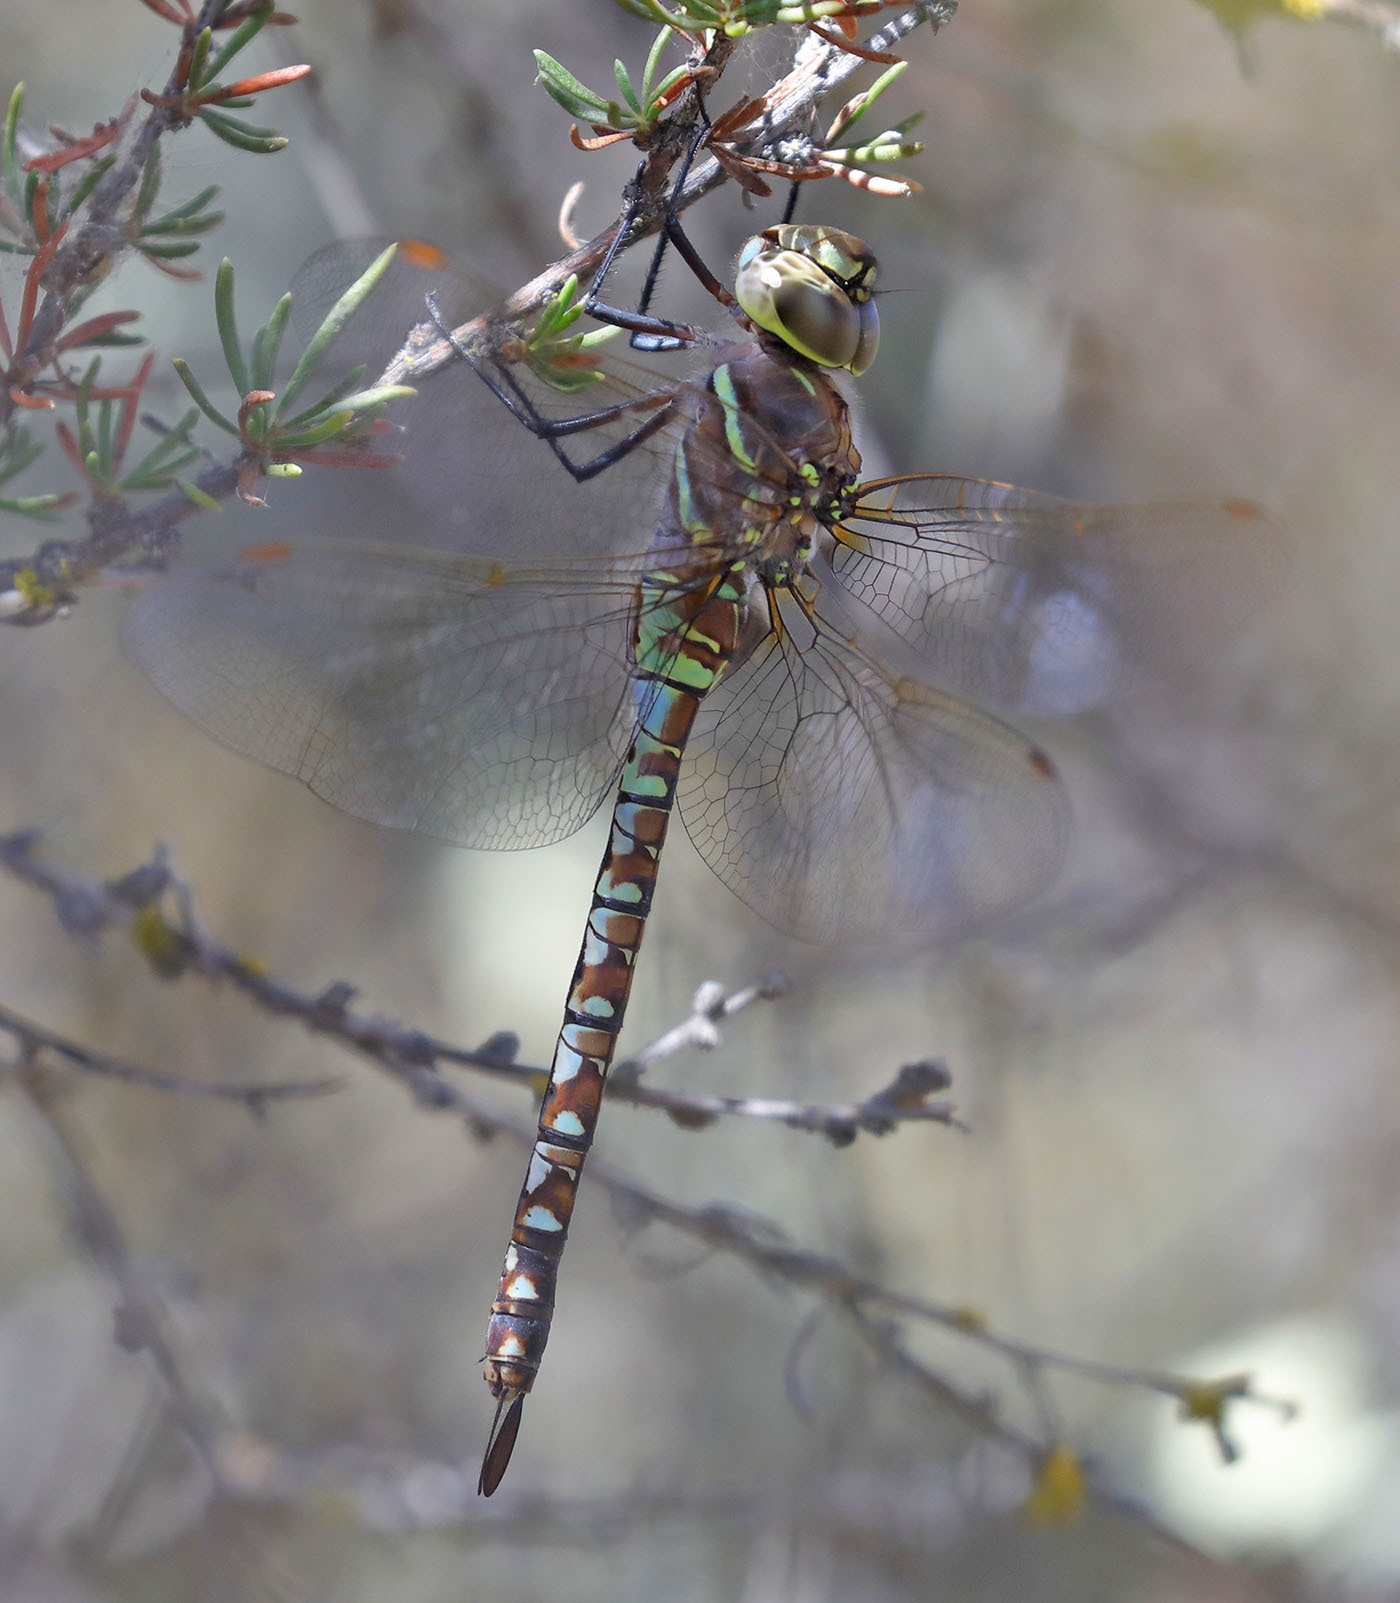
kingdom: Animalia
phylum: Arthropoda
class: Insecta
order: Odonata
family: Aeshnidae
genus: Rhionaeschna
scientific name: Rhionaeschna multicolor
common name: Blue-eyed darner
